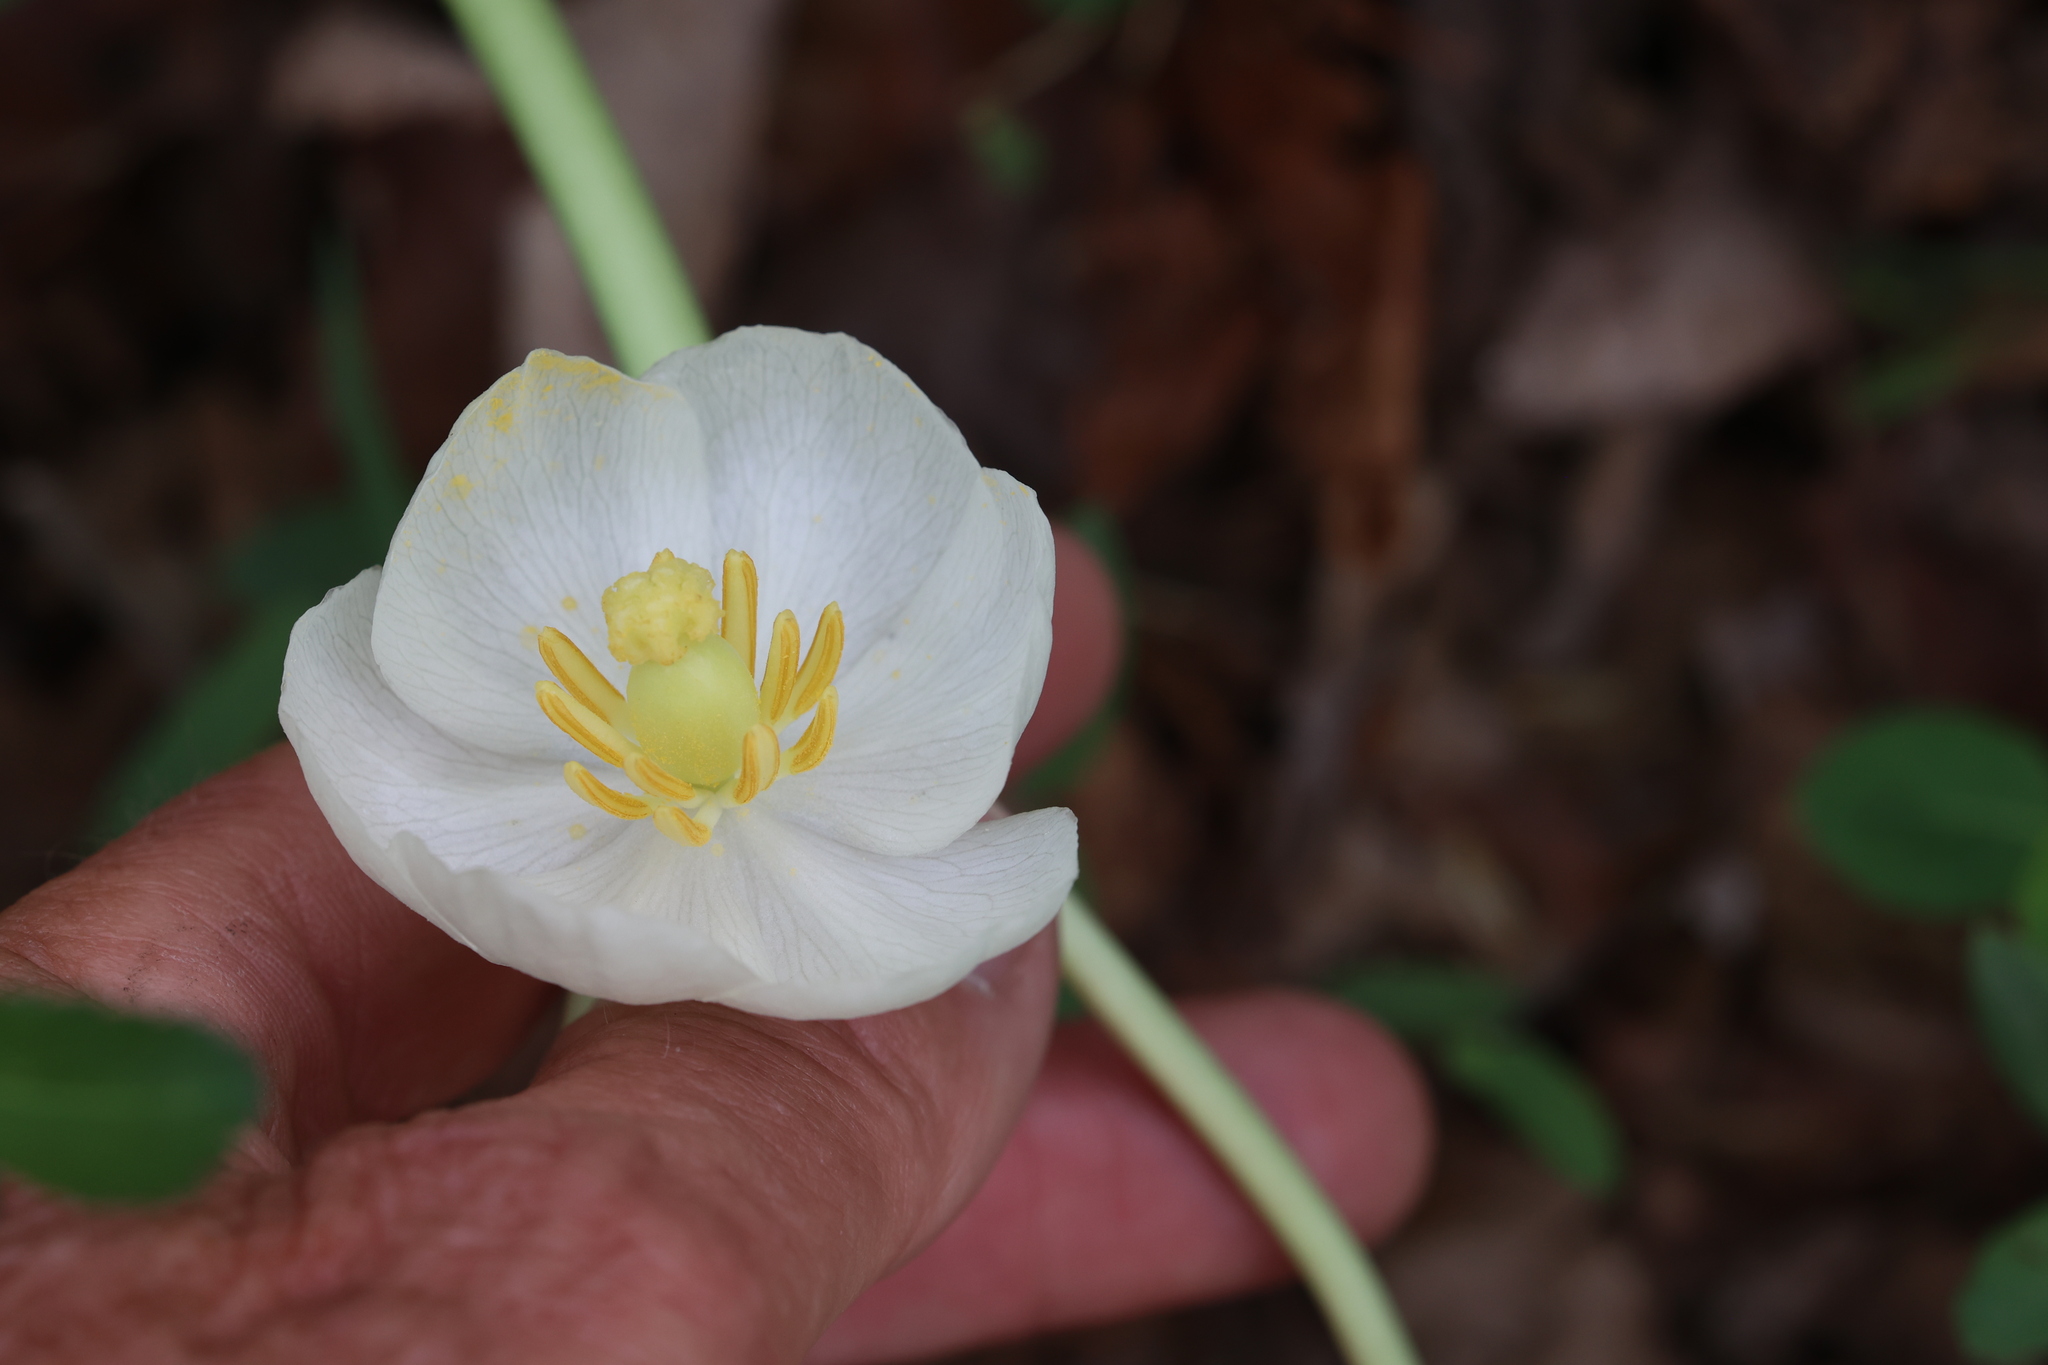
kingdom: Plantae
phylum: Tracheophyta
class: Magnoliopsida
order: Ranunculales
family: Berberidaceae
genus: Podophyllum
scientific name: Podophyllum peltatum
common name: Wild mandrake
